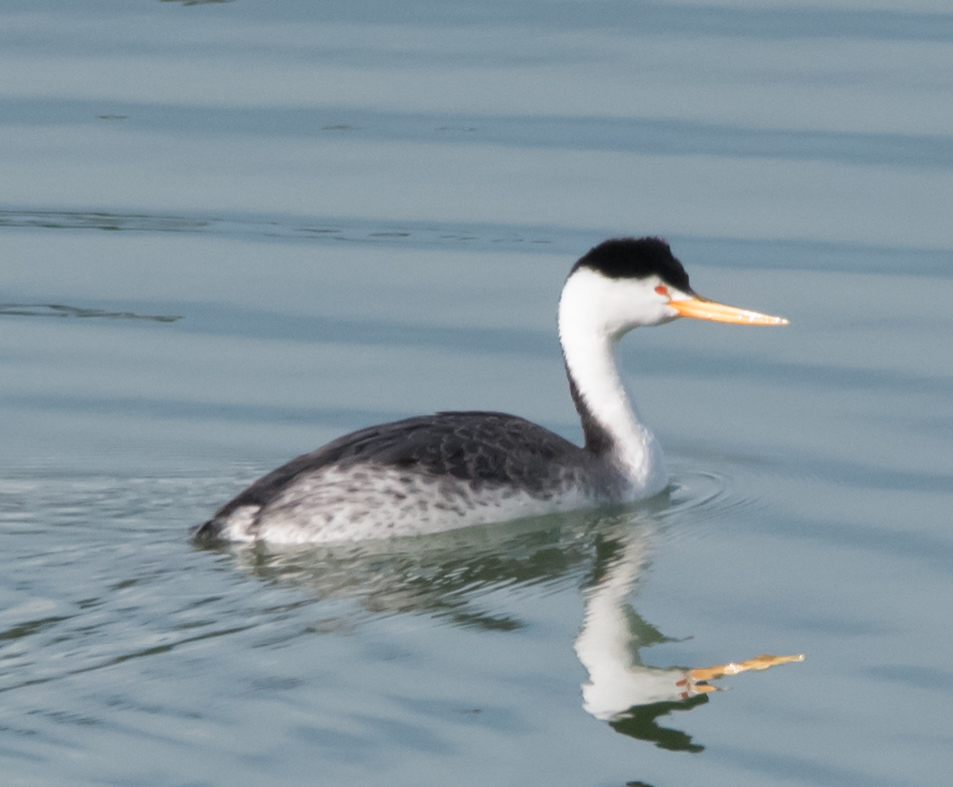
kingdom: Animalia
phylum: Chordata
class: Aves
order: Podicipediformes
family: Podicipedidae
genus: Aechmophorus
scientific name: Aechmophorus clarkii
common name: Clark's grebe
